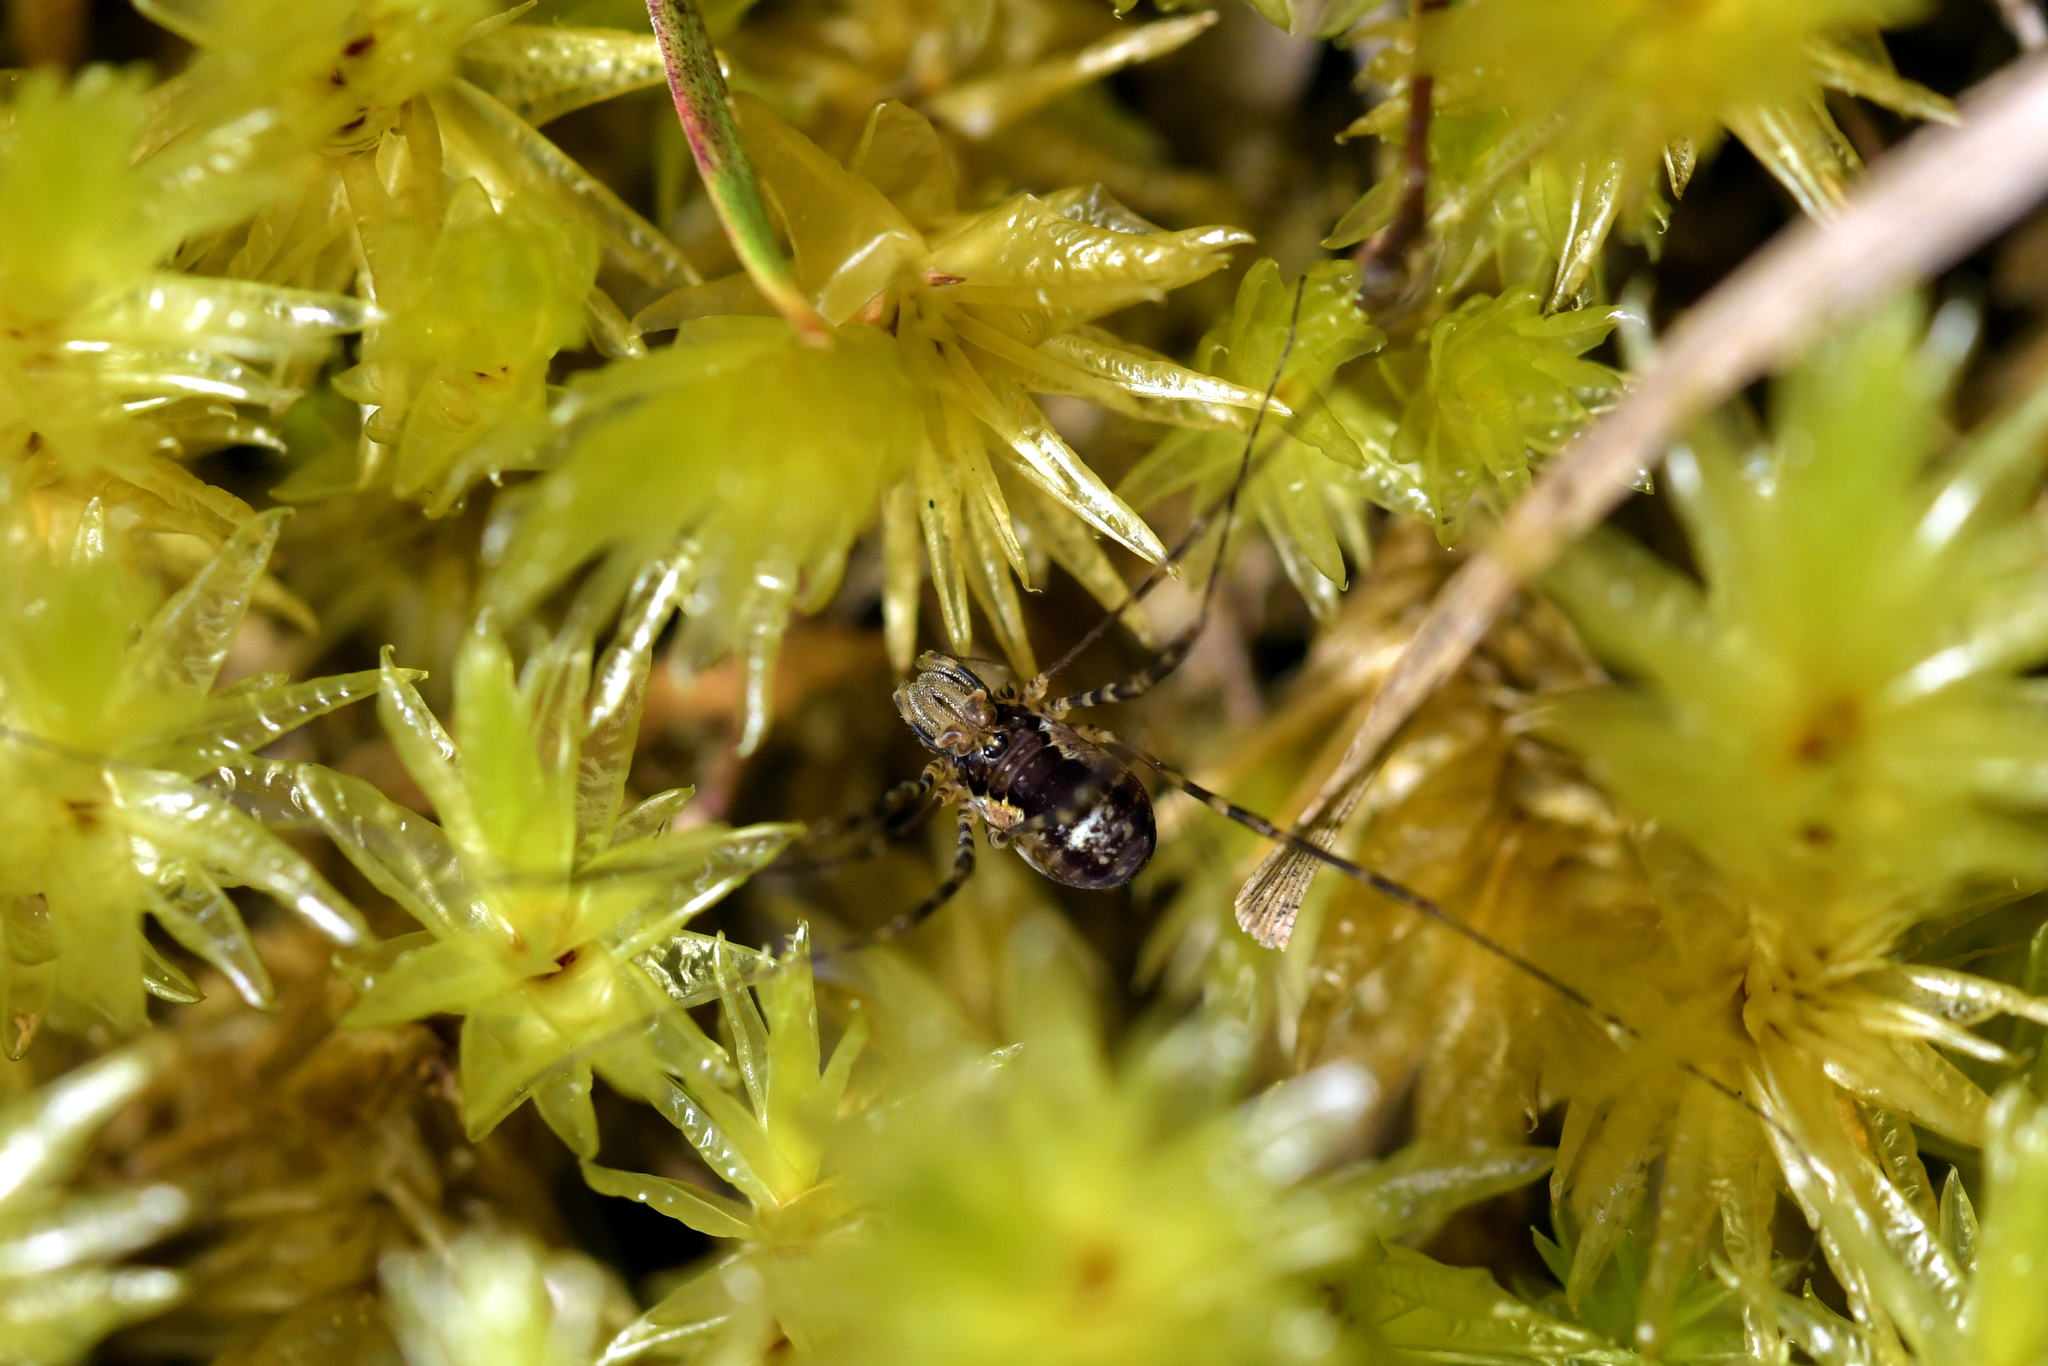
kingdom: Animalia
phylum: Arthropoda
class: Arachnida
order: Opiliones
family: Neopilionidae
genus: Megalopsalis
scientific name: Megalopsalis triascuta
